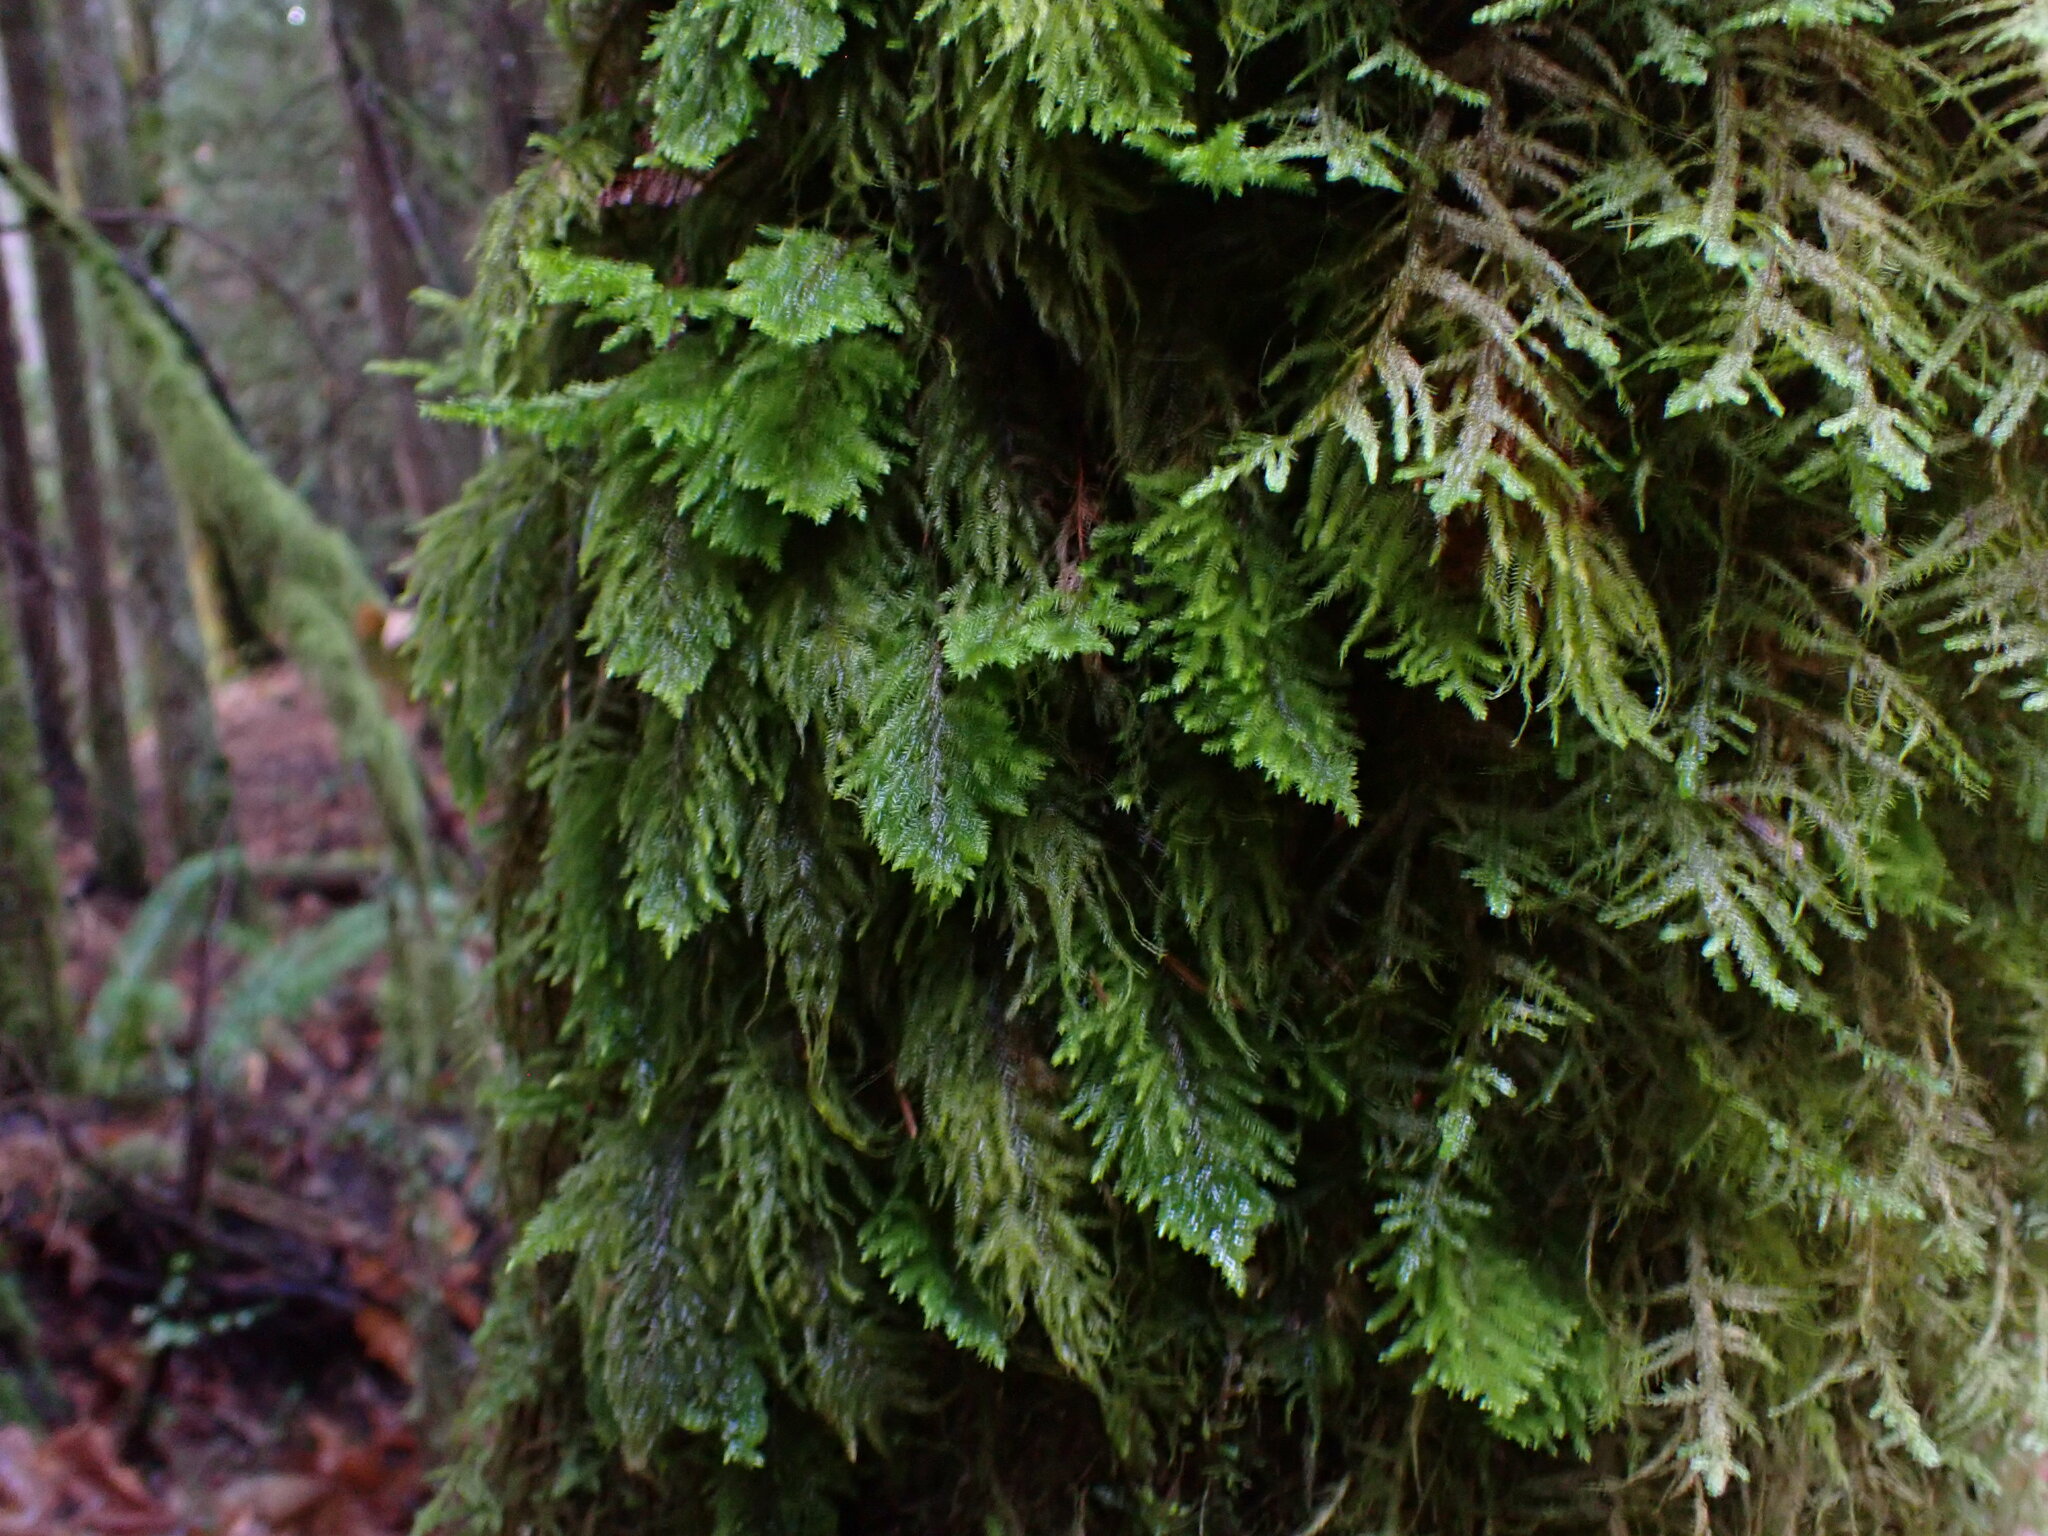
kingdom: Plantae
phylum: Bryophyta
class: Bryopsida
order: Hypnales
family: Cryphaeaceae
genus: Dendroalsia
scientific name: Dendroalsia abietina
